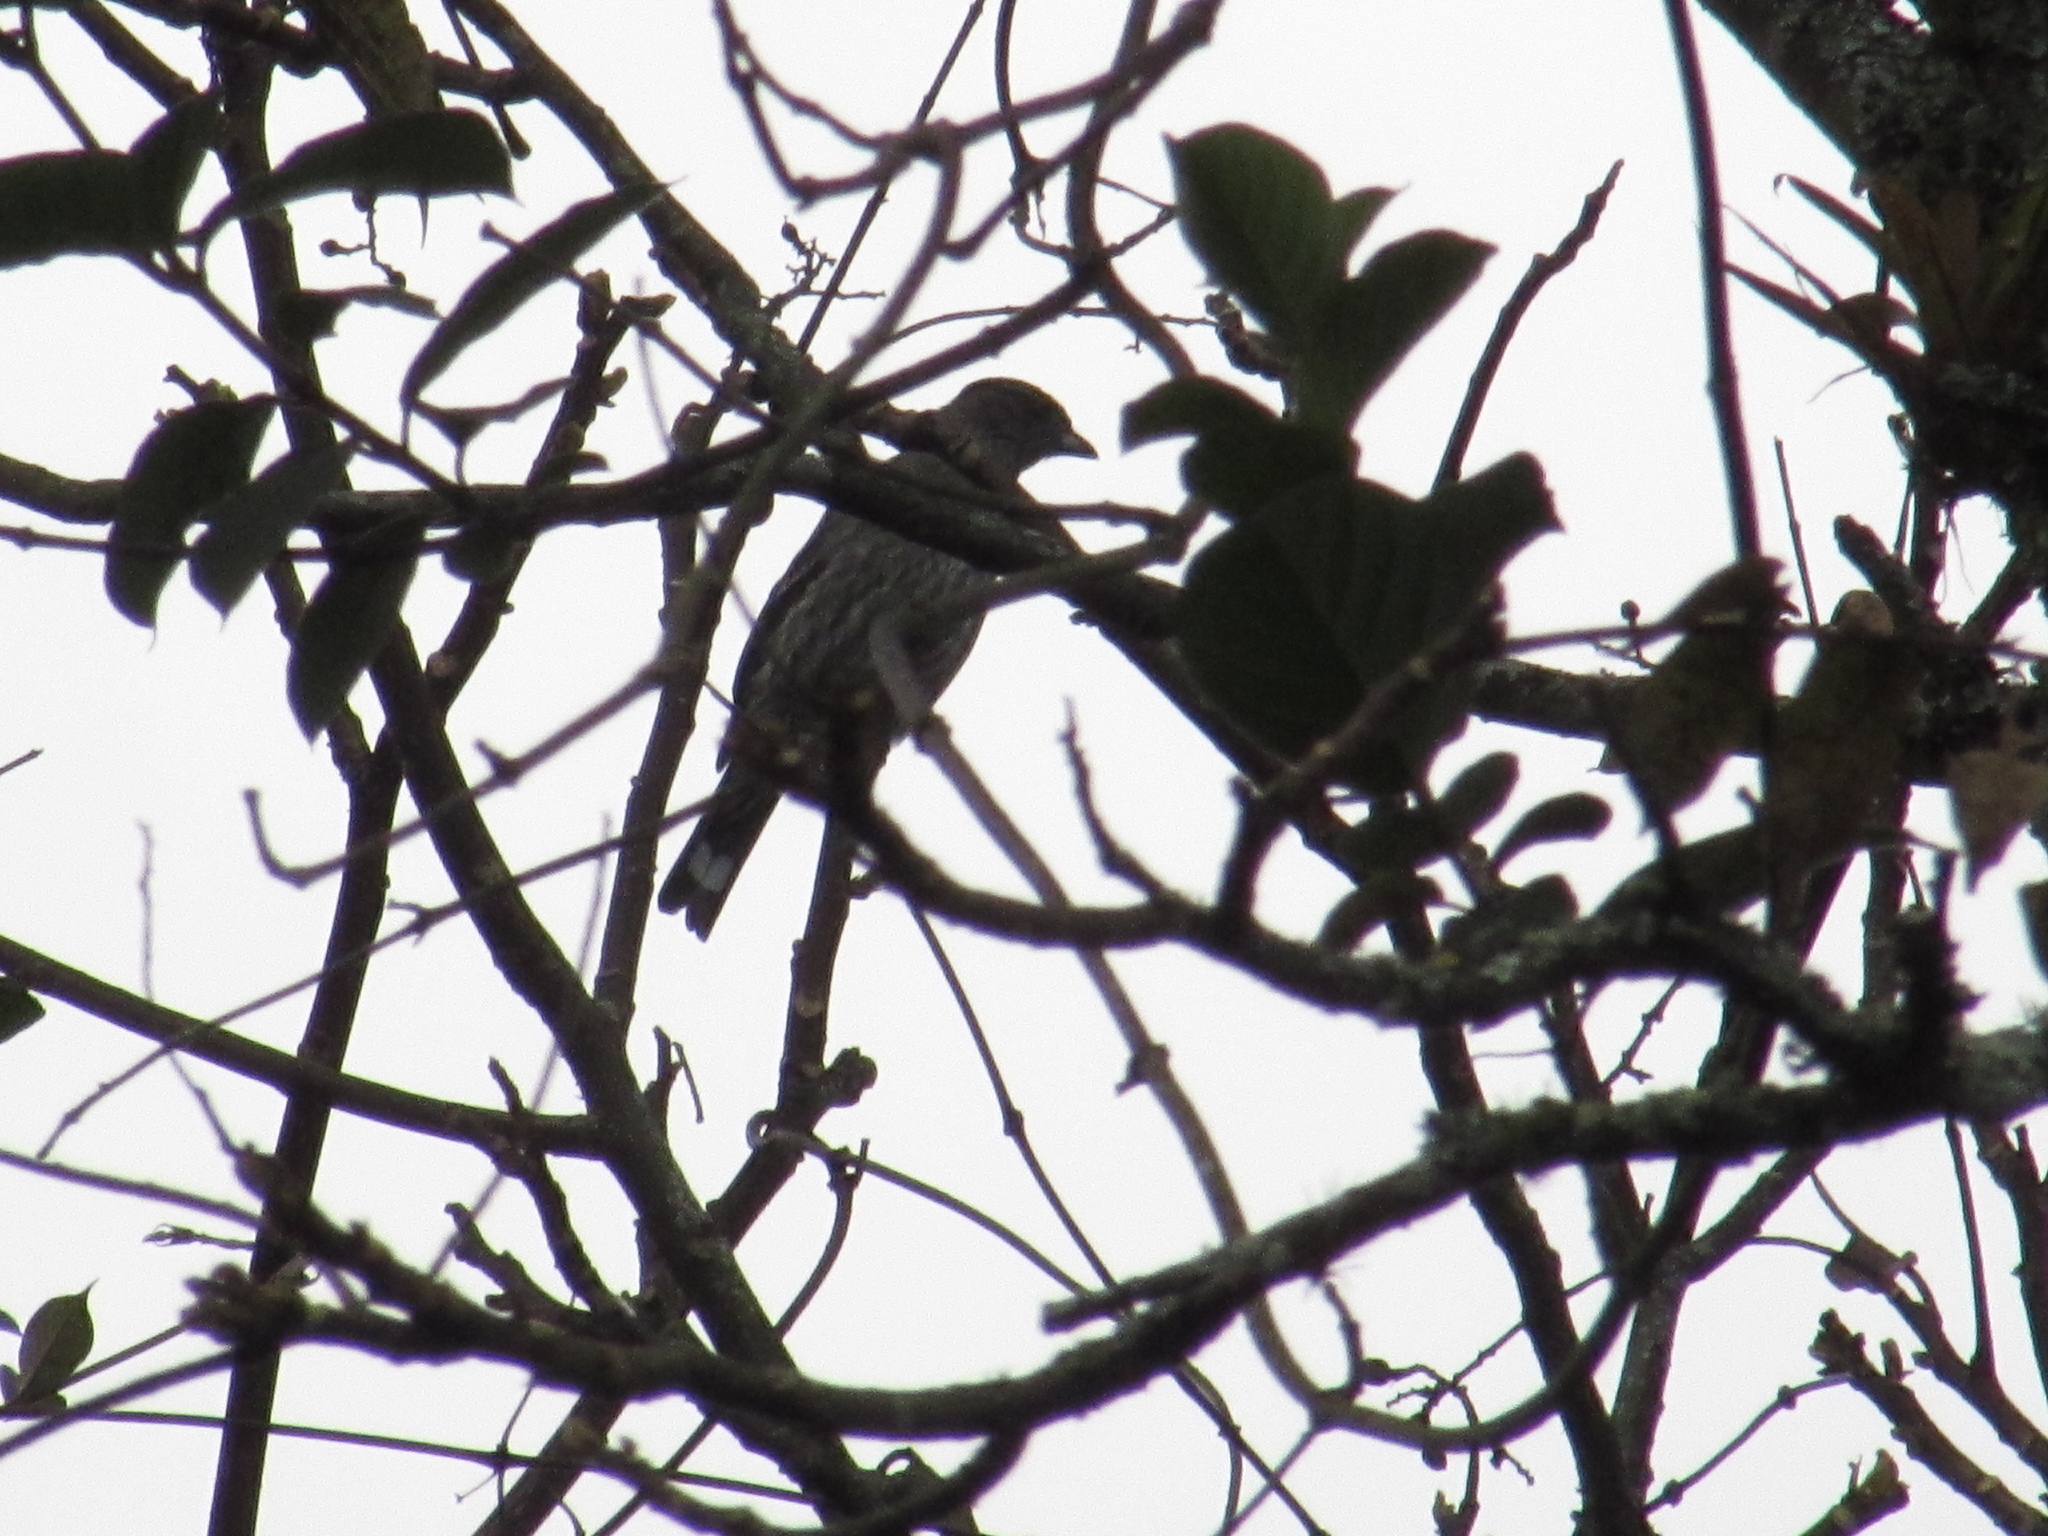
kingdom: Animalia
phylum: Chordata
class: Aves
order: Passeriformes
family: Cotingidae
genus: Ampelion
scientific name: Ampelion rubrocristatus
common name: Red-crested cotinga
